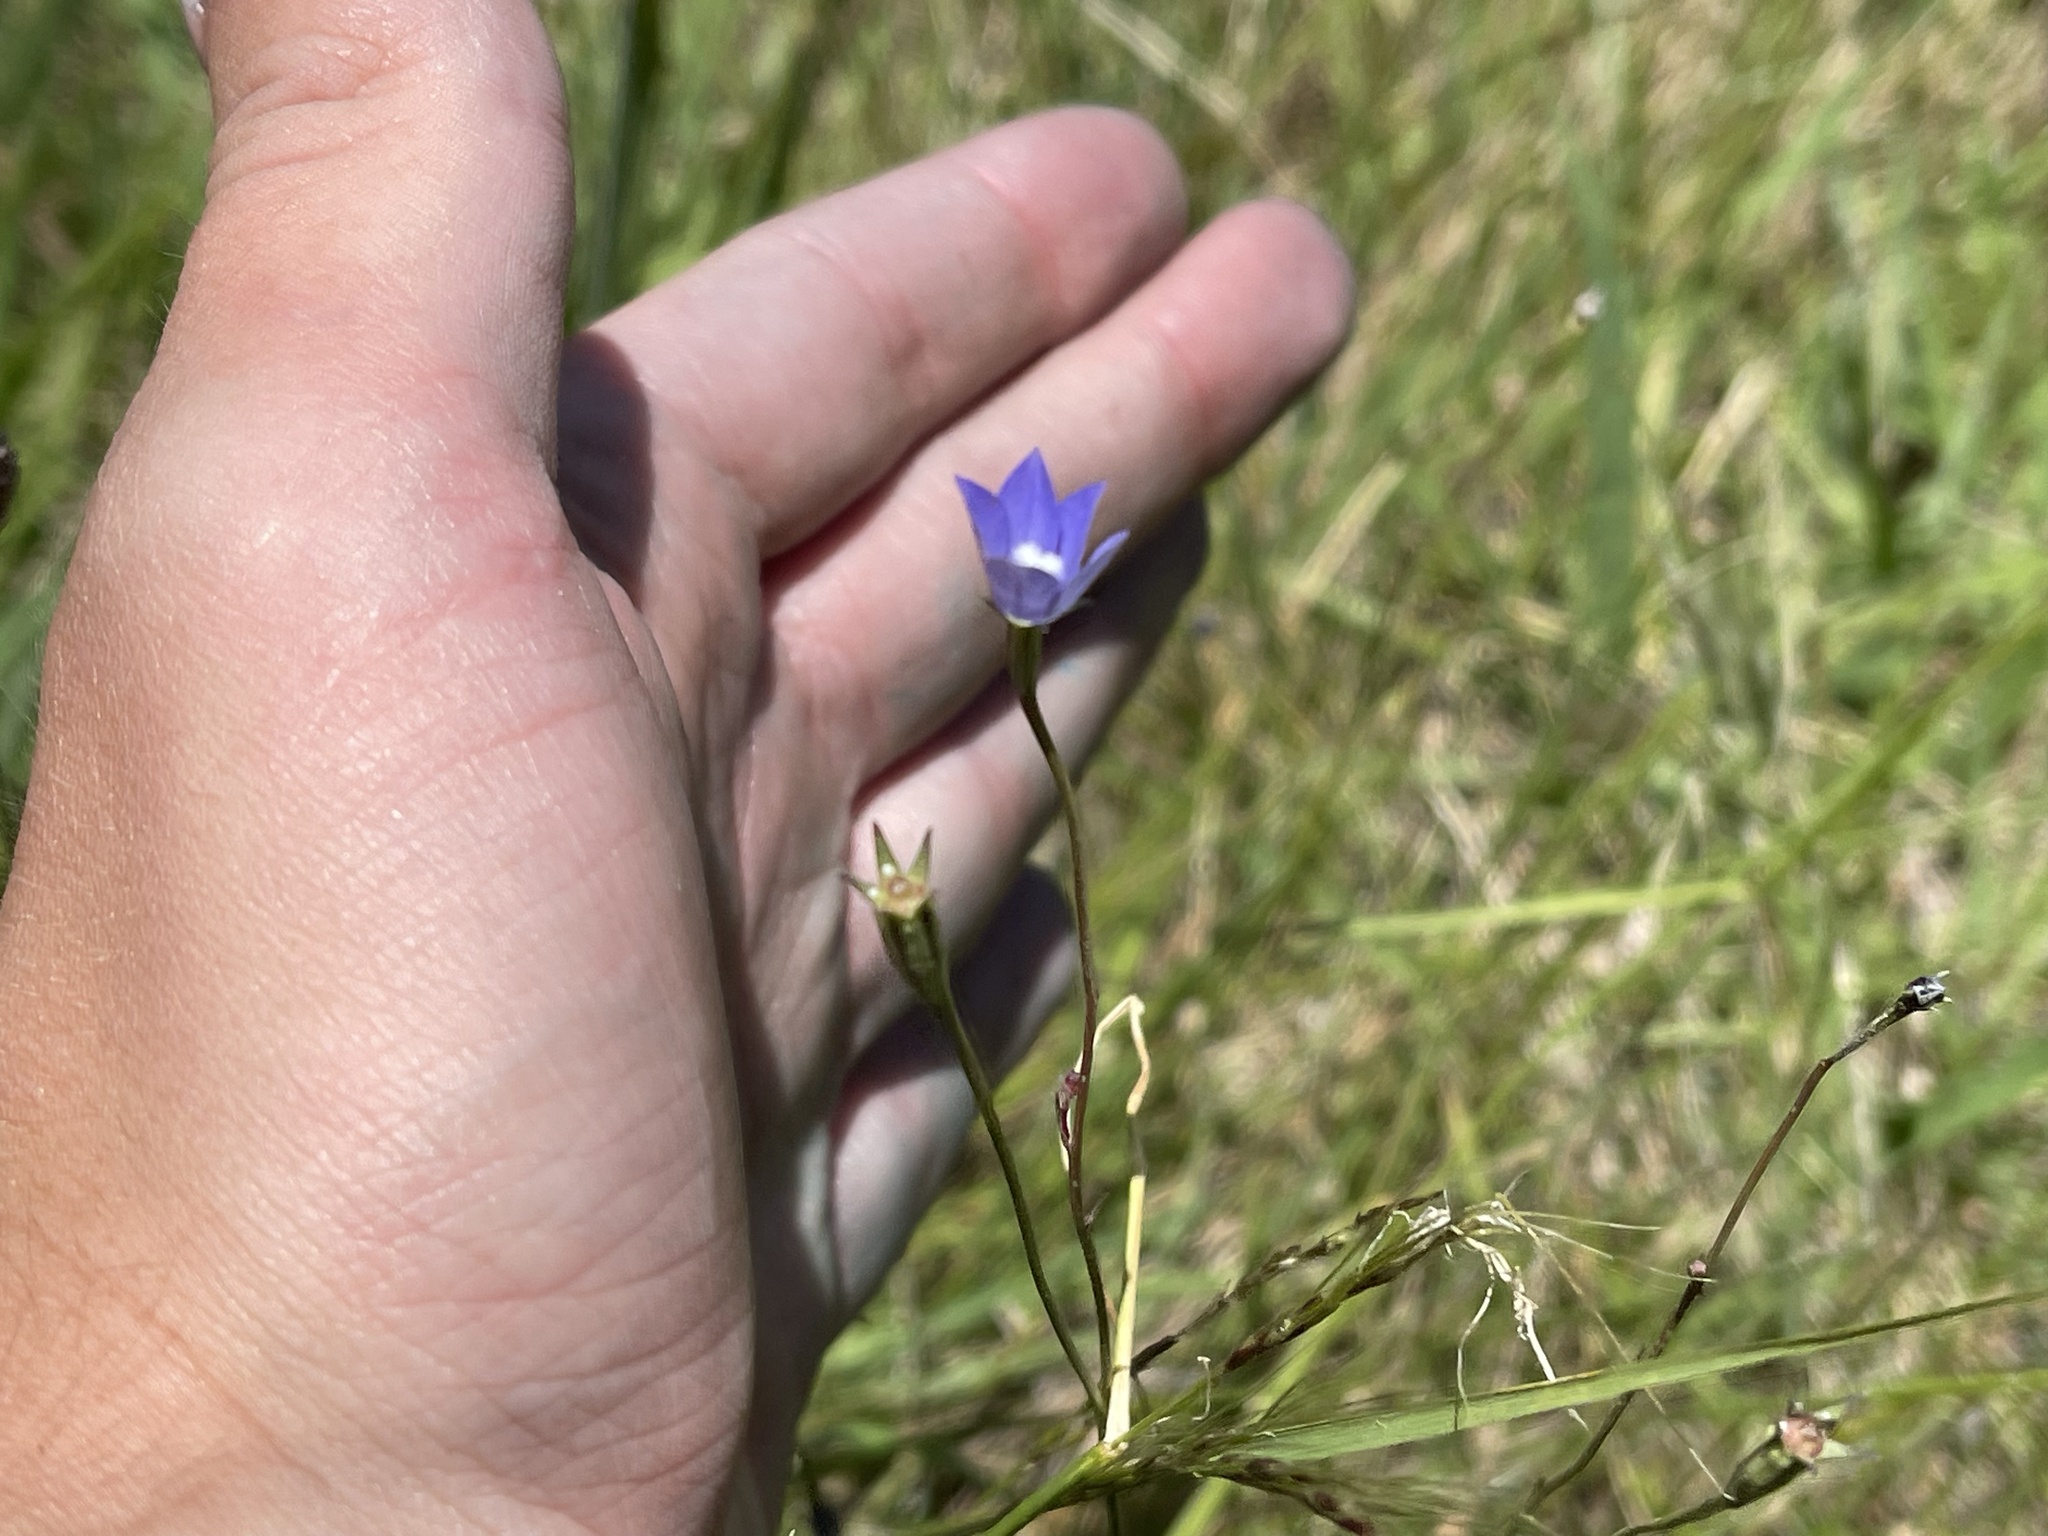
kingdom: Plantae
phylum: Tracheophyta
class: Magnoliopsida
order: Asterales
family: Campanulaceae
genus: Wahlenbergia
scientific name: Wahlenbergia gracilis
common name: Harebell
